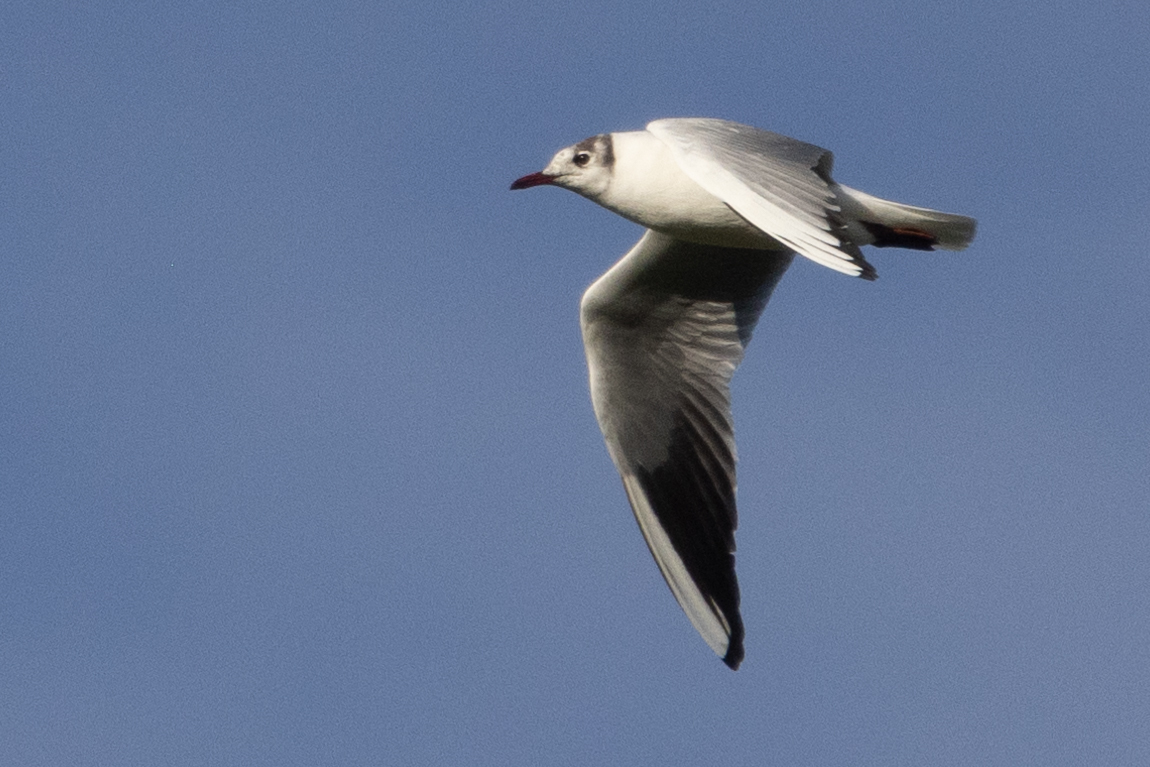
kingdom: Animalia
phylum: Chordata
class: Aves
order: Charadriiformes
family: Laridae
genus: Chroicocephalus
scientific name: Chroicocephalus ridibundus
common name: Black-headed gull
